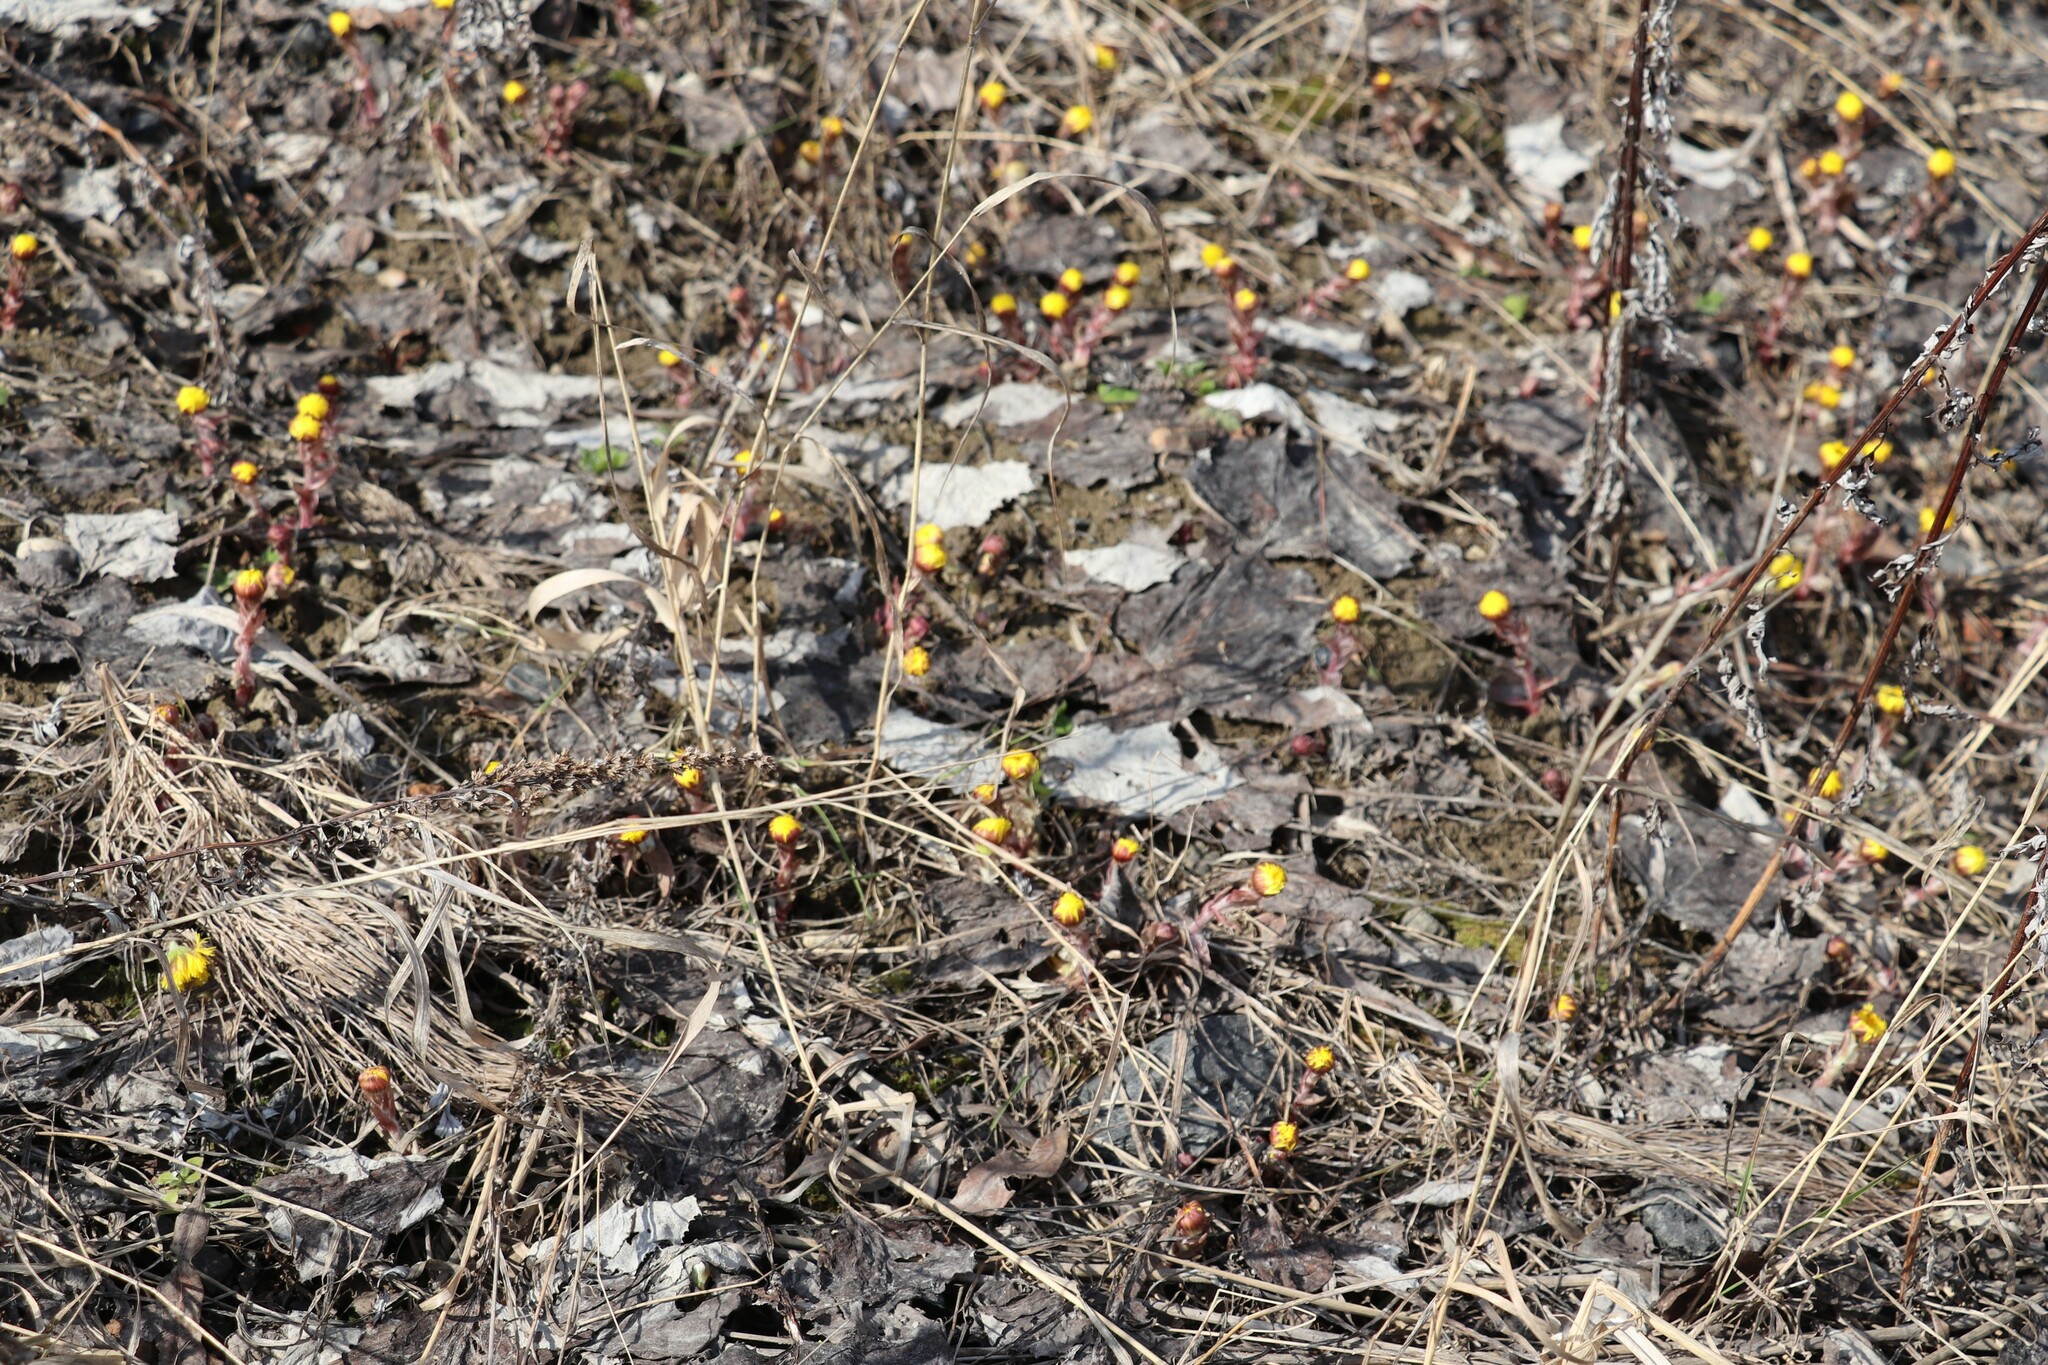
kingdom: Plantae
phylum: Tracheophyta
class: Magnoliopsida
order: Asterales
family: Asteraceae
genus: Tussilago
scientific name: Tussilago farfara
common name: Coltsfoot
